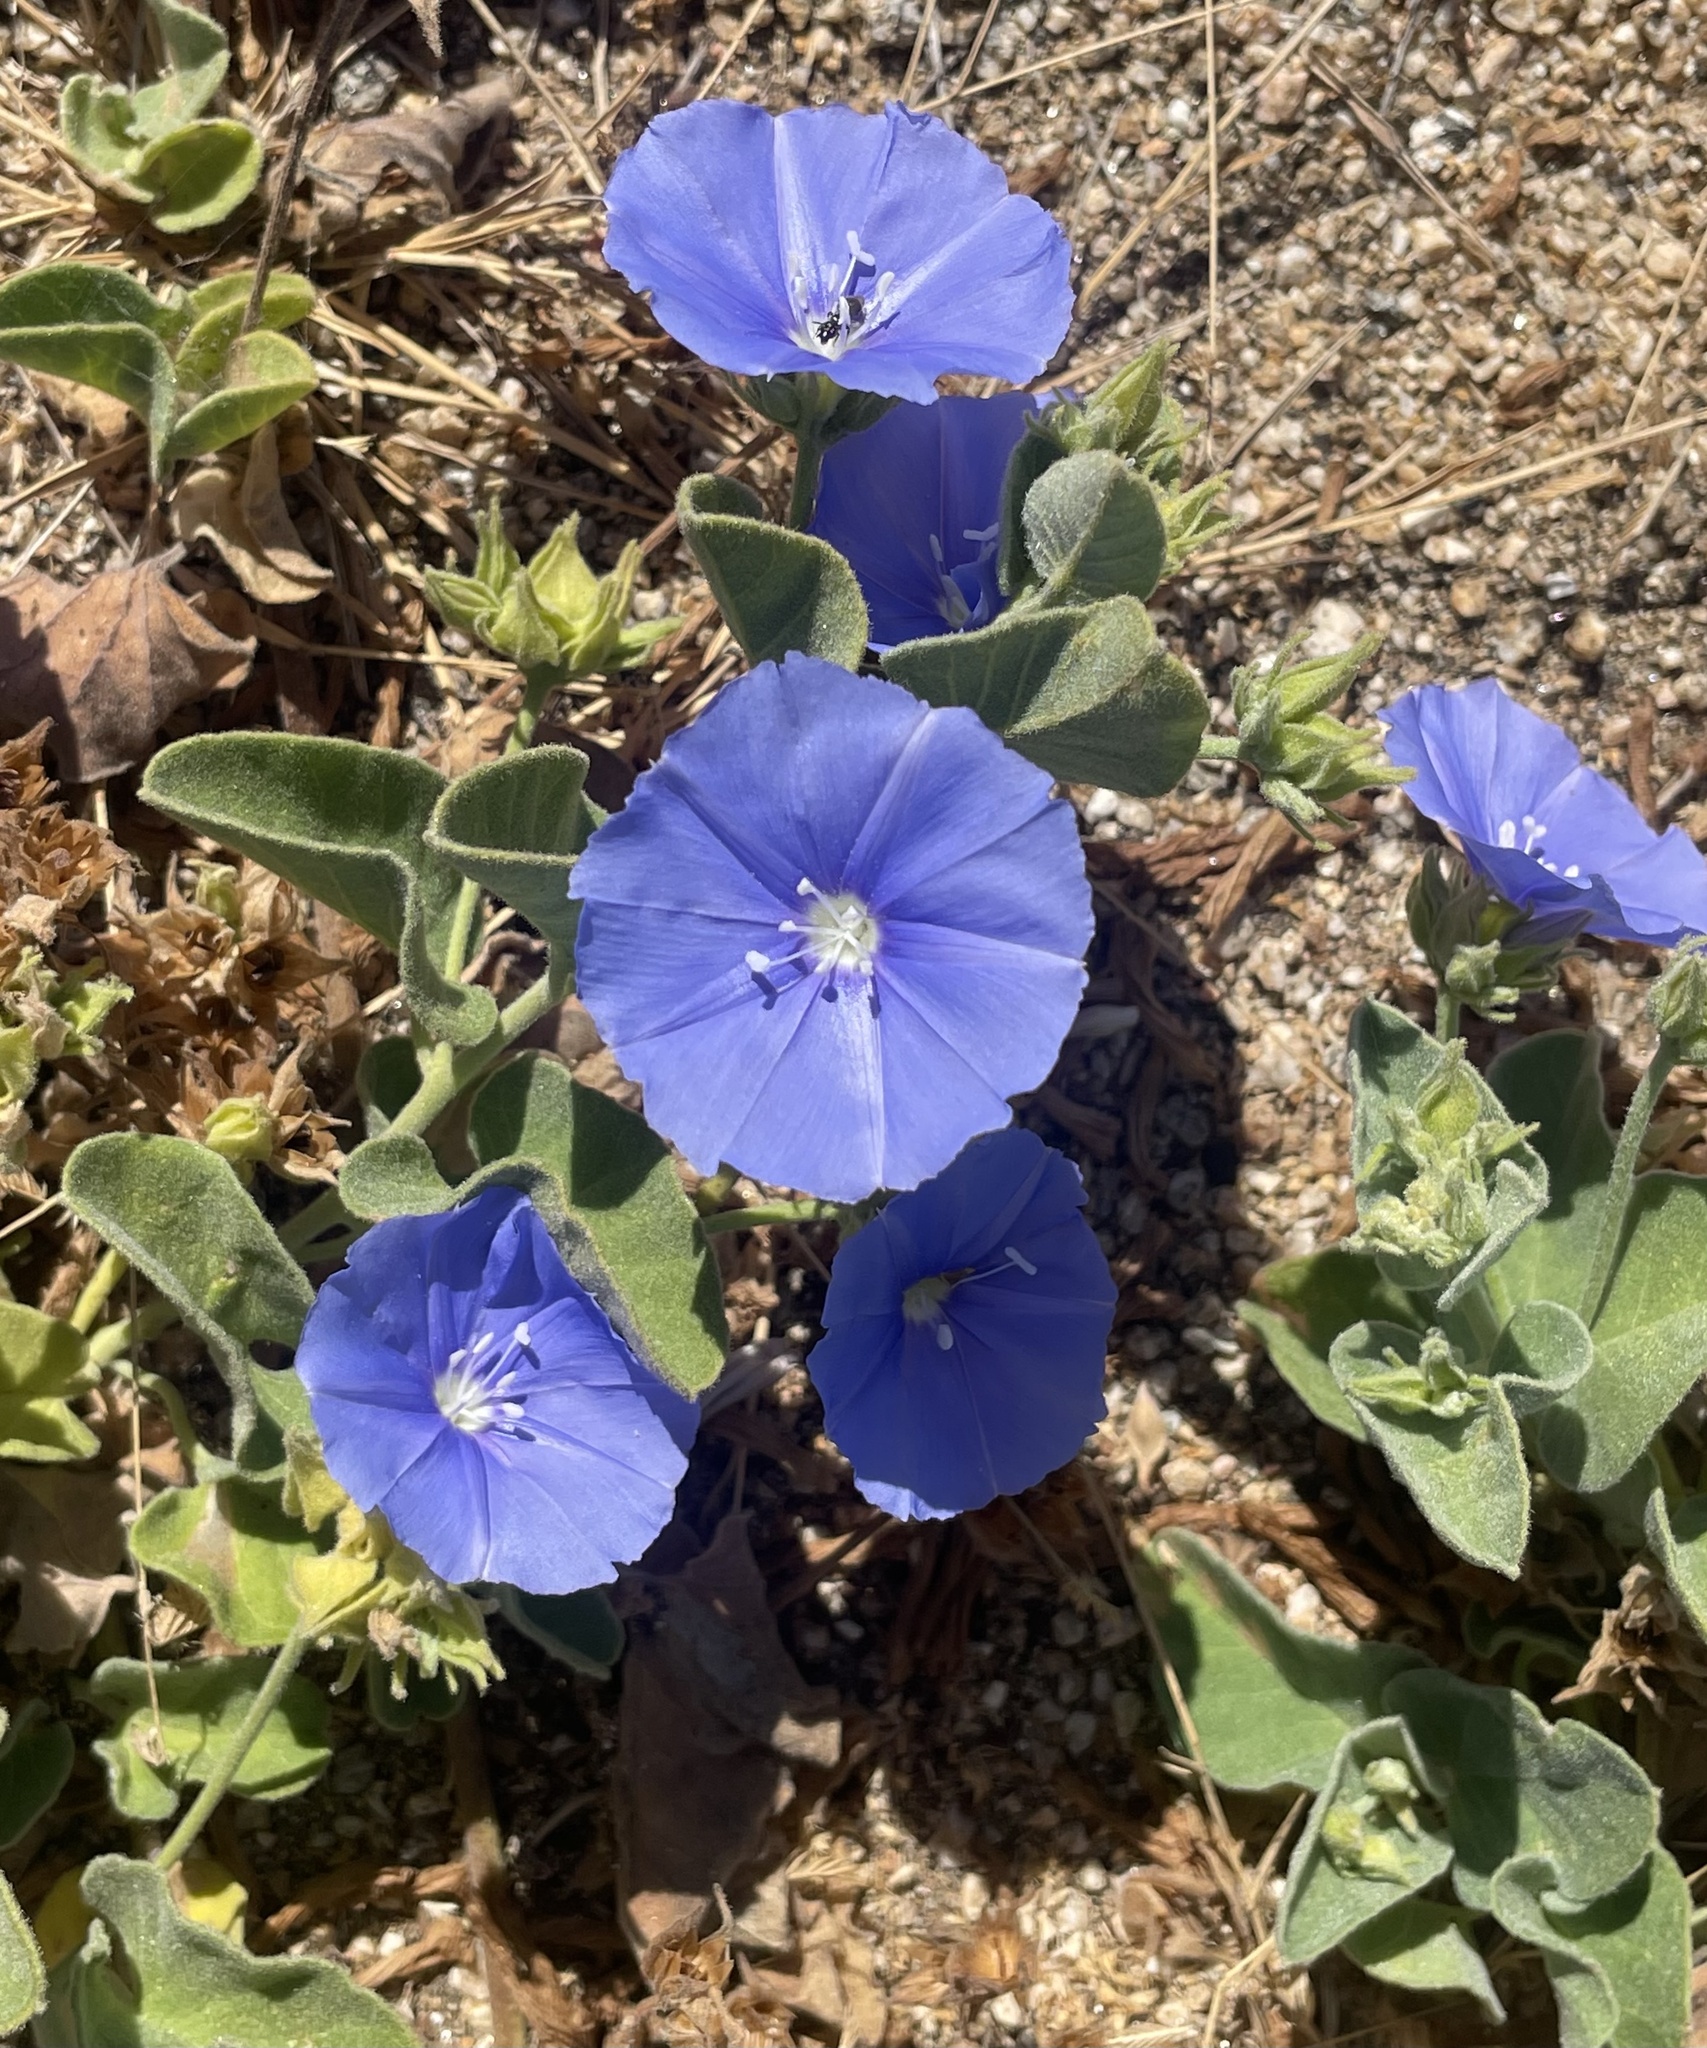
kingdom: Plantae
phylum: Tracheophyta
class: Magnoliopsida
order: Solanales
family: Convolvulaceae
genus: Jacquemontia
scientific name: Jacquemontia abutiloides
